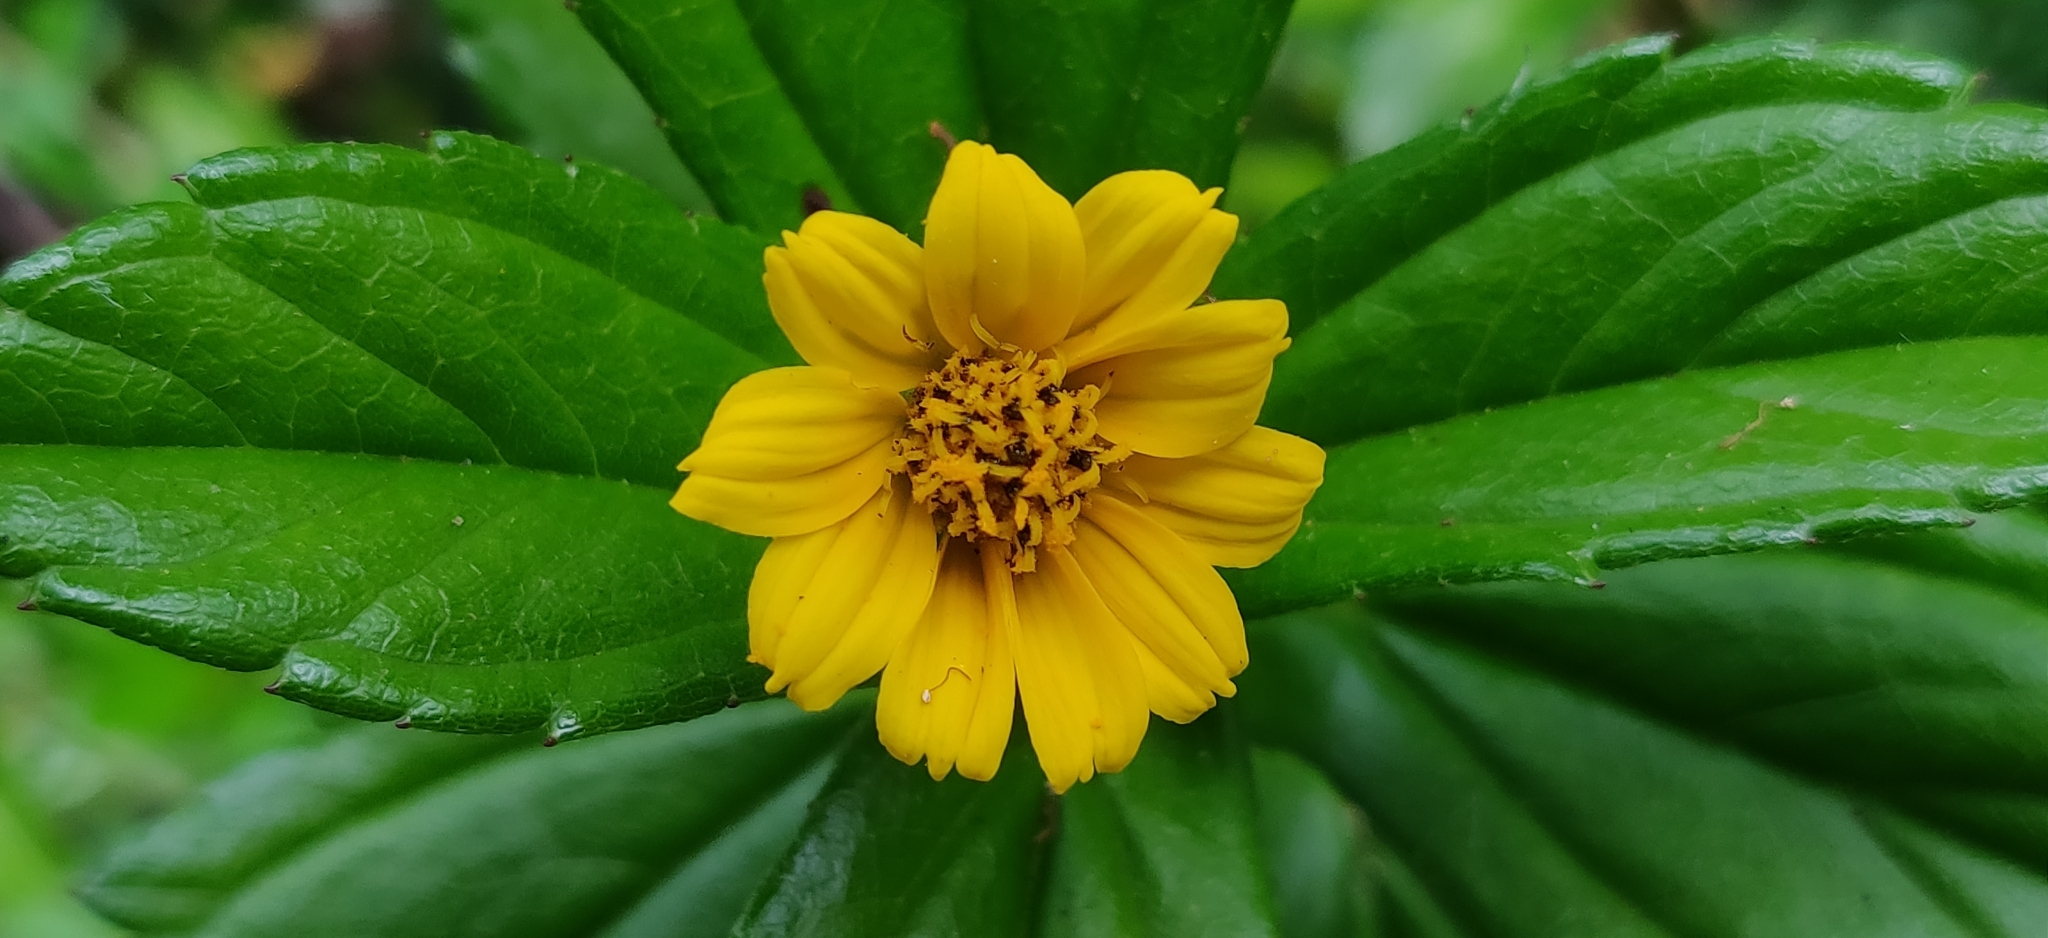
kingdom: Plantae
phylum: Tracheophyta
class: Magnoliopsida
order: Asterales
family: Asteraceae
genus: Sphagneticola
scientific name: Sphagneticola trilobata
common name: Bay biscayne creeping-oxeye
